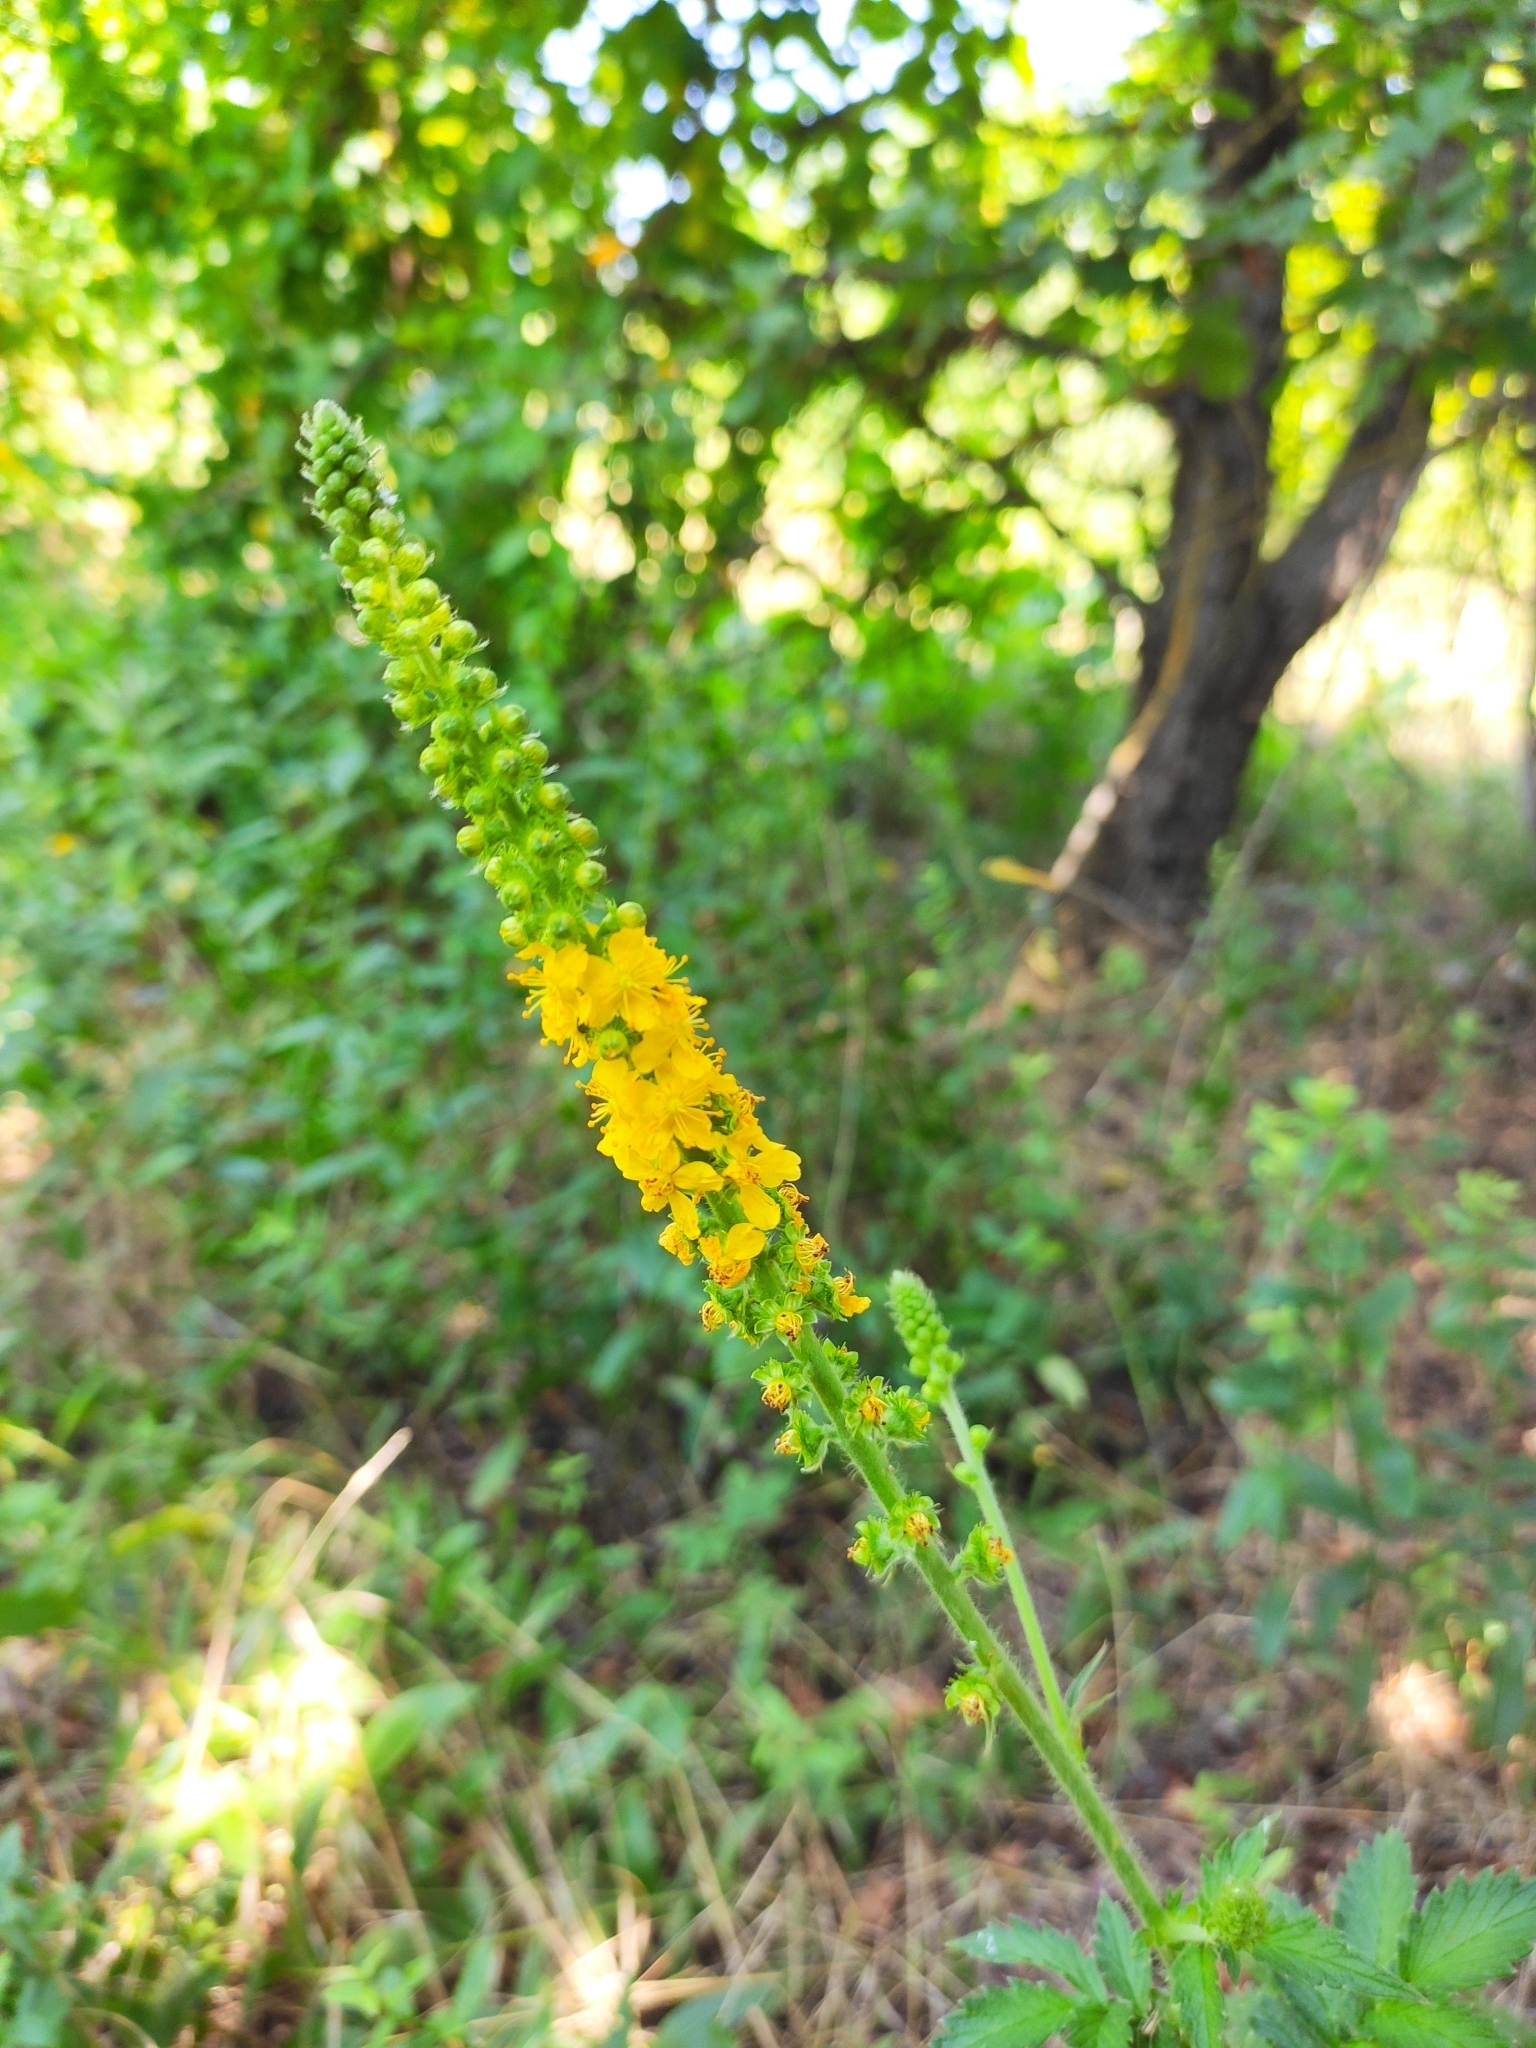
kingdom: Plantae
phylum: Tracheophyta
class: Magnoliopsida
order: Rosales
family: Rosaceae
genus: Agrimonia
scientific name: Agrimonia eupatoria
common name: Agrimony
